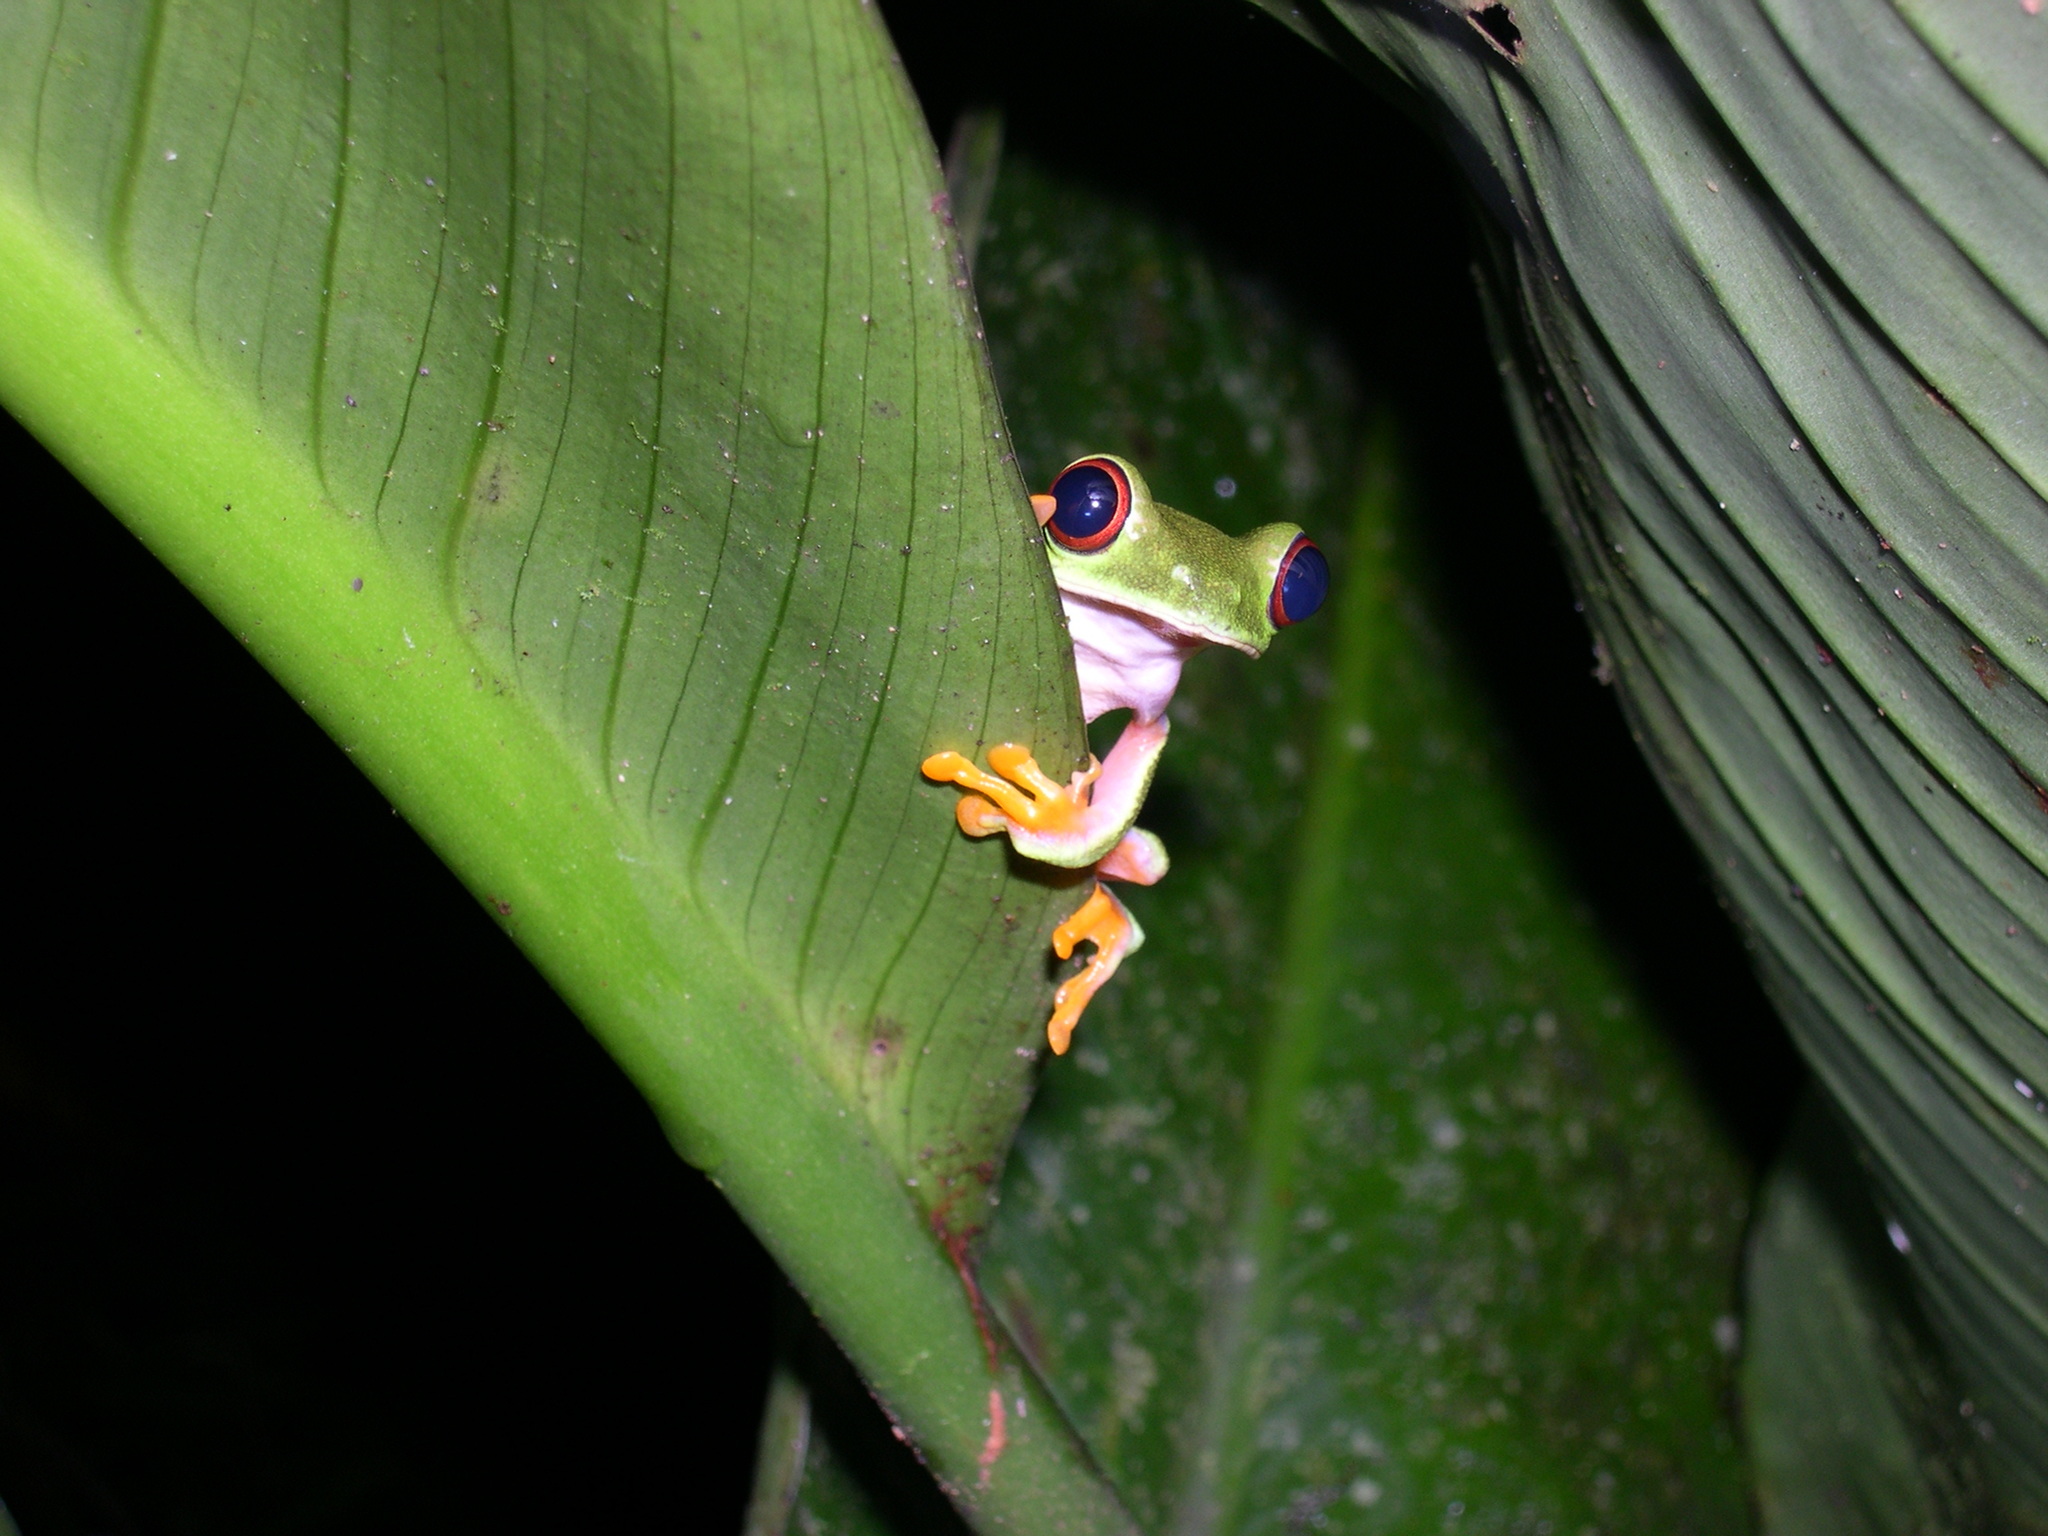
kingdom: Animalia
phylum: Chordata
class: Amphibia
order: Anura
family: Phyllomedusidae
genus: Agalychnis
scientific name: Agalychnis saltator
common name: Misfit leaf frog
